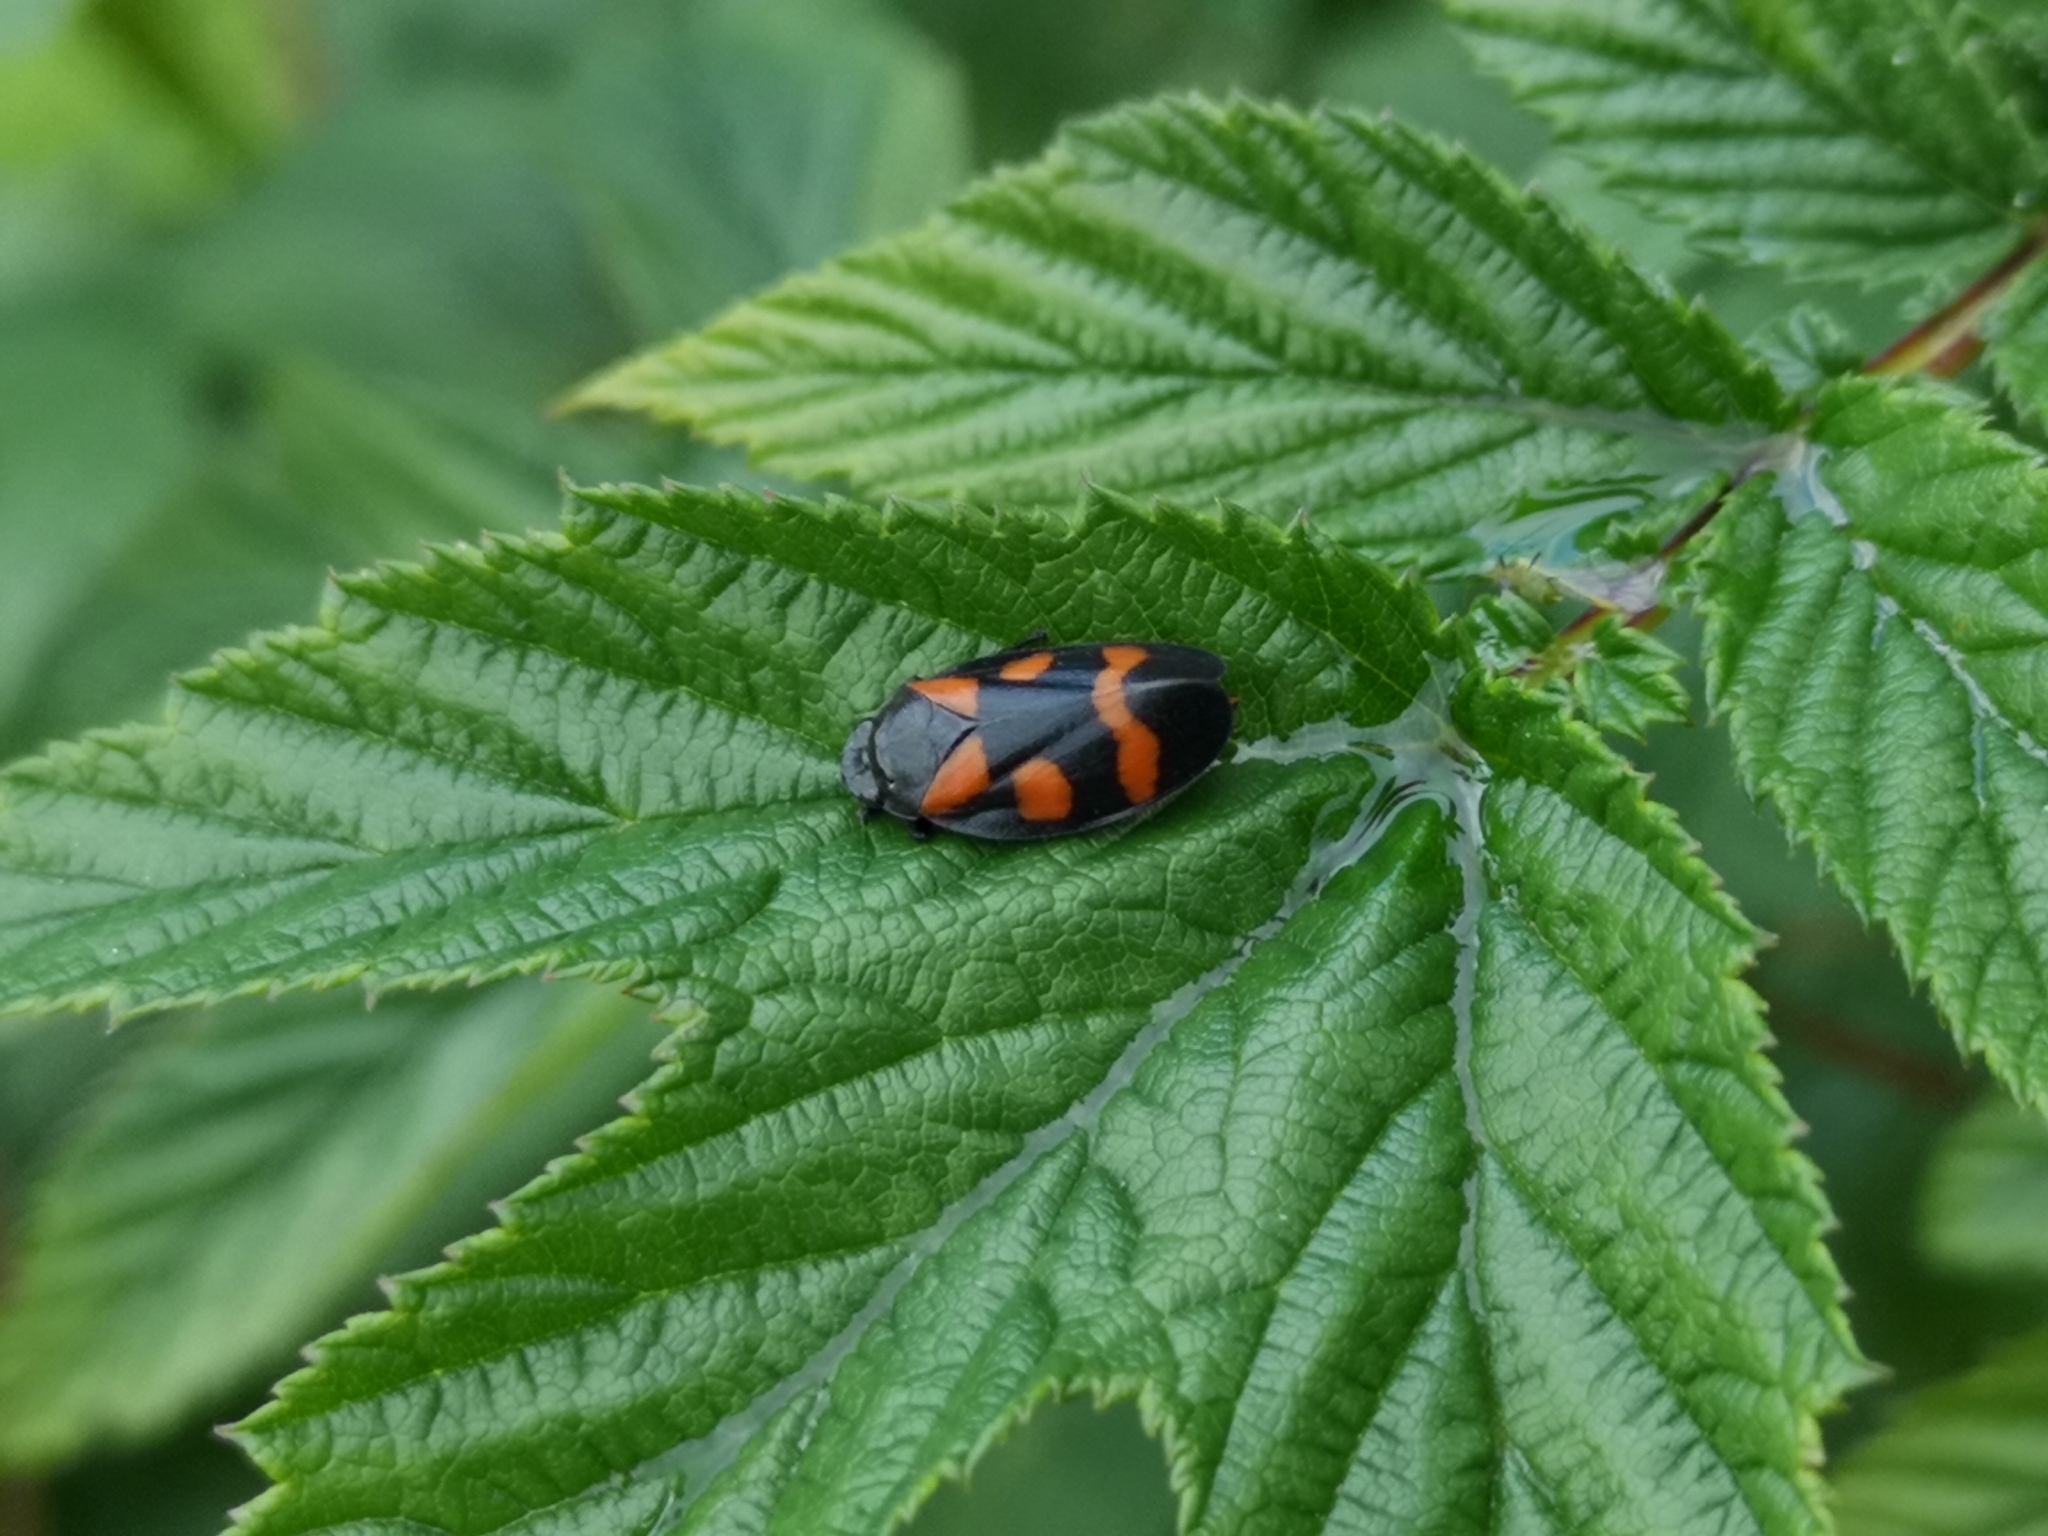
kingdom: Animalia
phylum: Arthropoda
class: Insecta
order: Hemiptera
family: Cercopidae
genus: Cercopis
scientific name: Cercopis sanguinolenta
